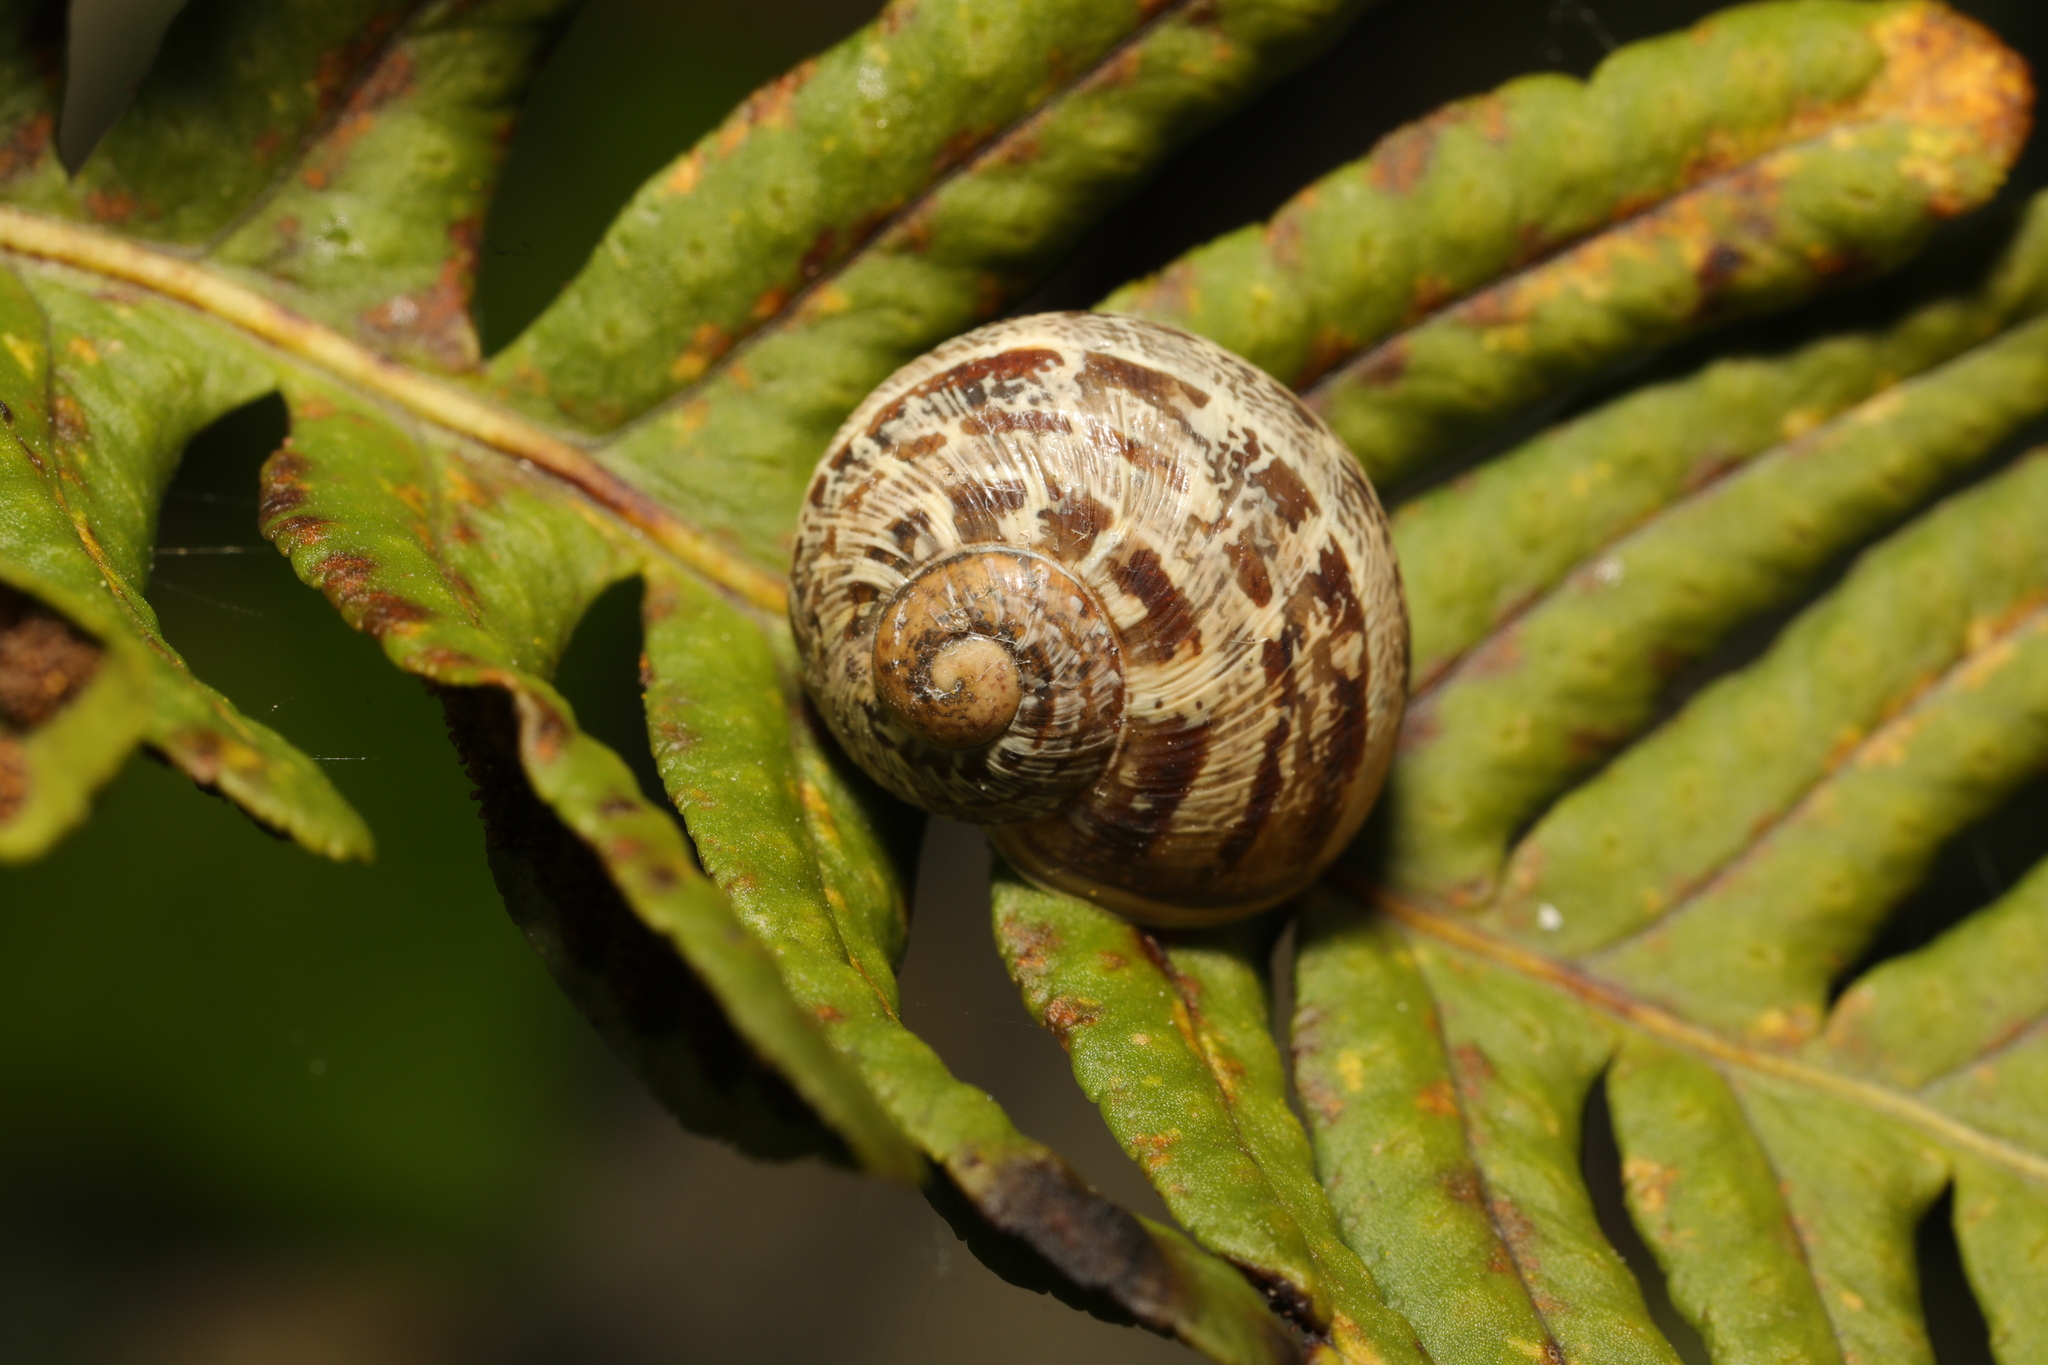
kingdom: Animalia
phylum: Mollusca
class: Gastropoda
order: Stylommatophora
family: Helicidae
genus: Cornu
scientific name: Cornu aspersum
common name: Brown garden snail
